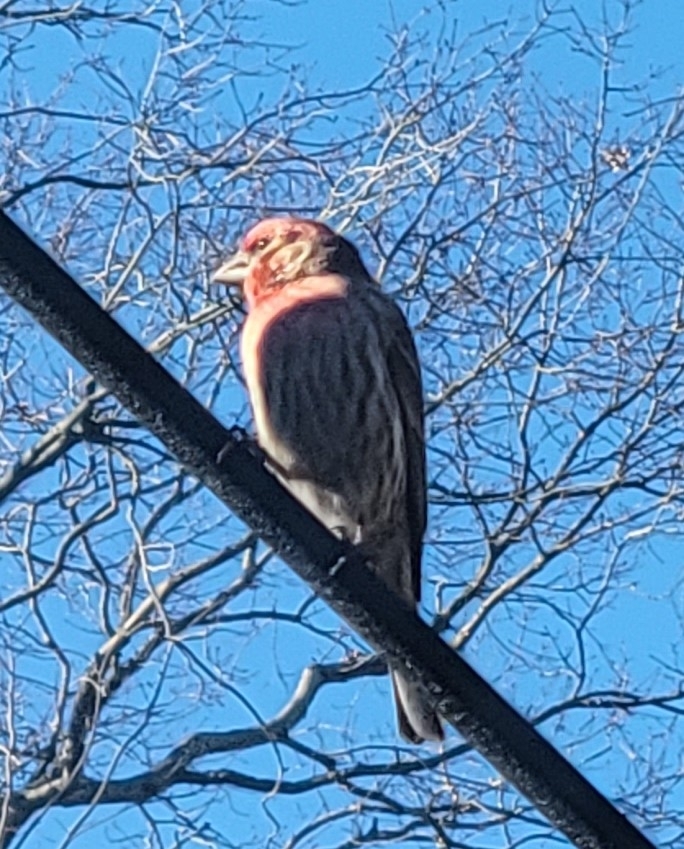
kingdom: Animalia
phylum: Chordata
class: Aves
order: Passeriformes
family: Fringillidae
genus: Haemorhous
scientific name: Haemorhous mexicanus
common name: House finch
